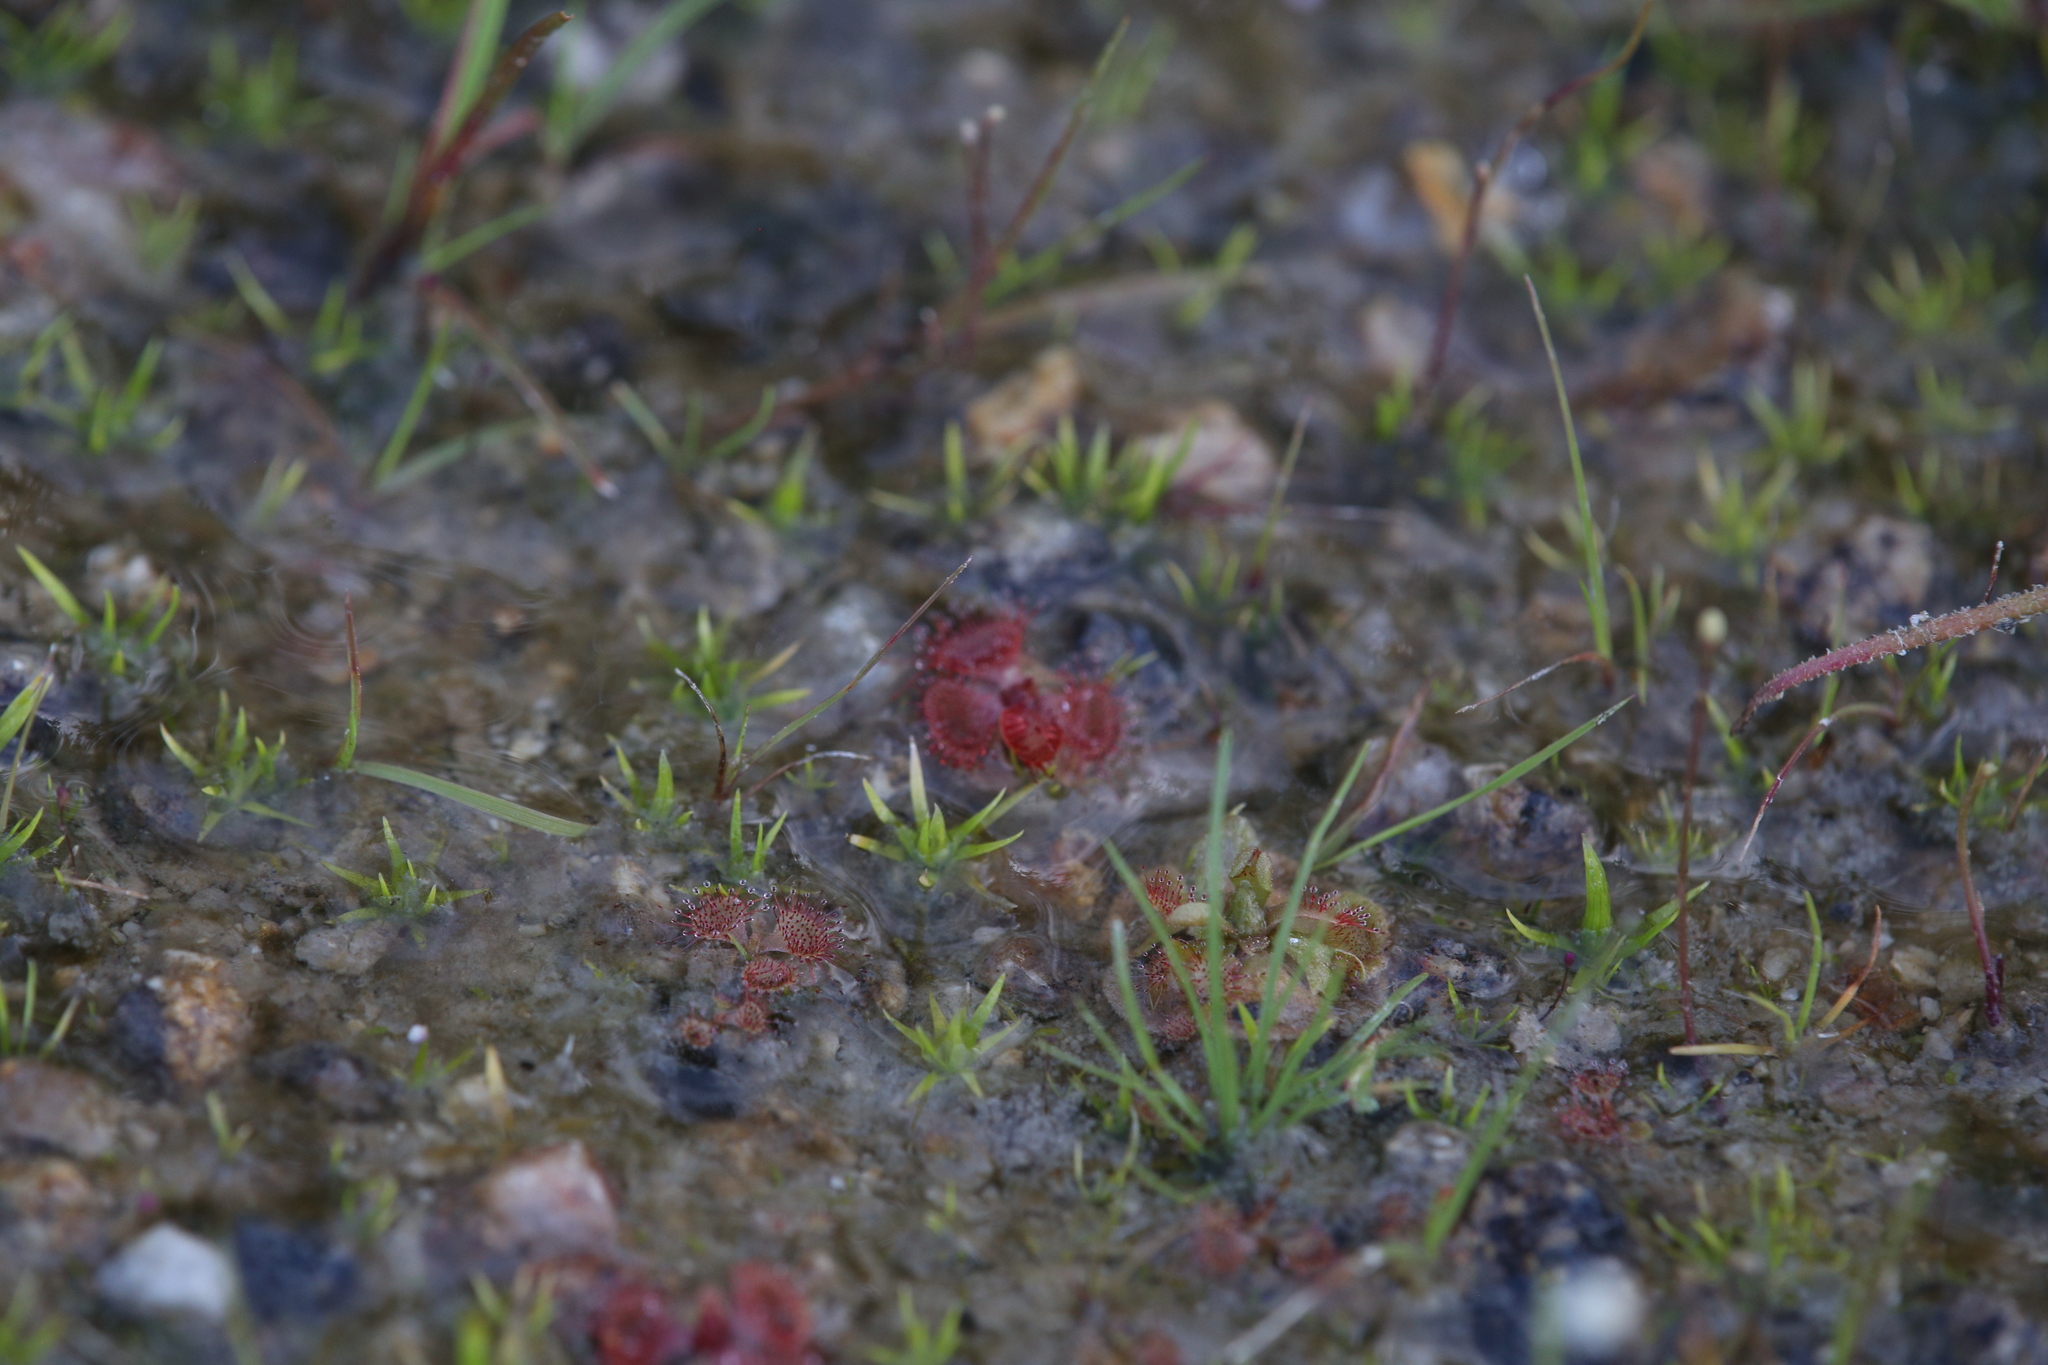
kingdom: Plantae
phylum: Tracheophyta
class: Magnoliopsida
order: Caryophyllales
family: Droseraceae
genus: Drosera
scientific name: Drosera spatulata
